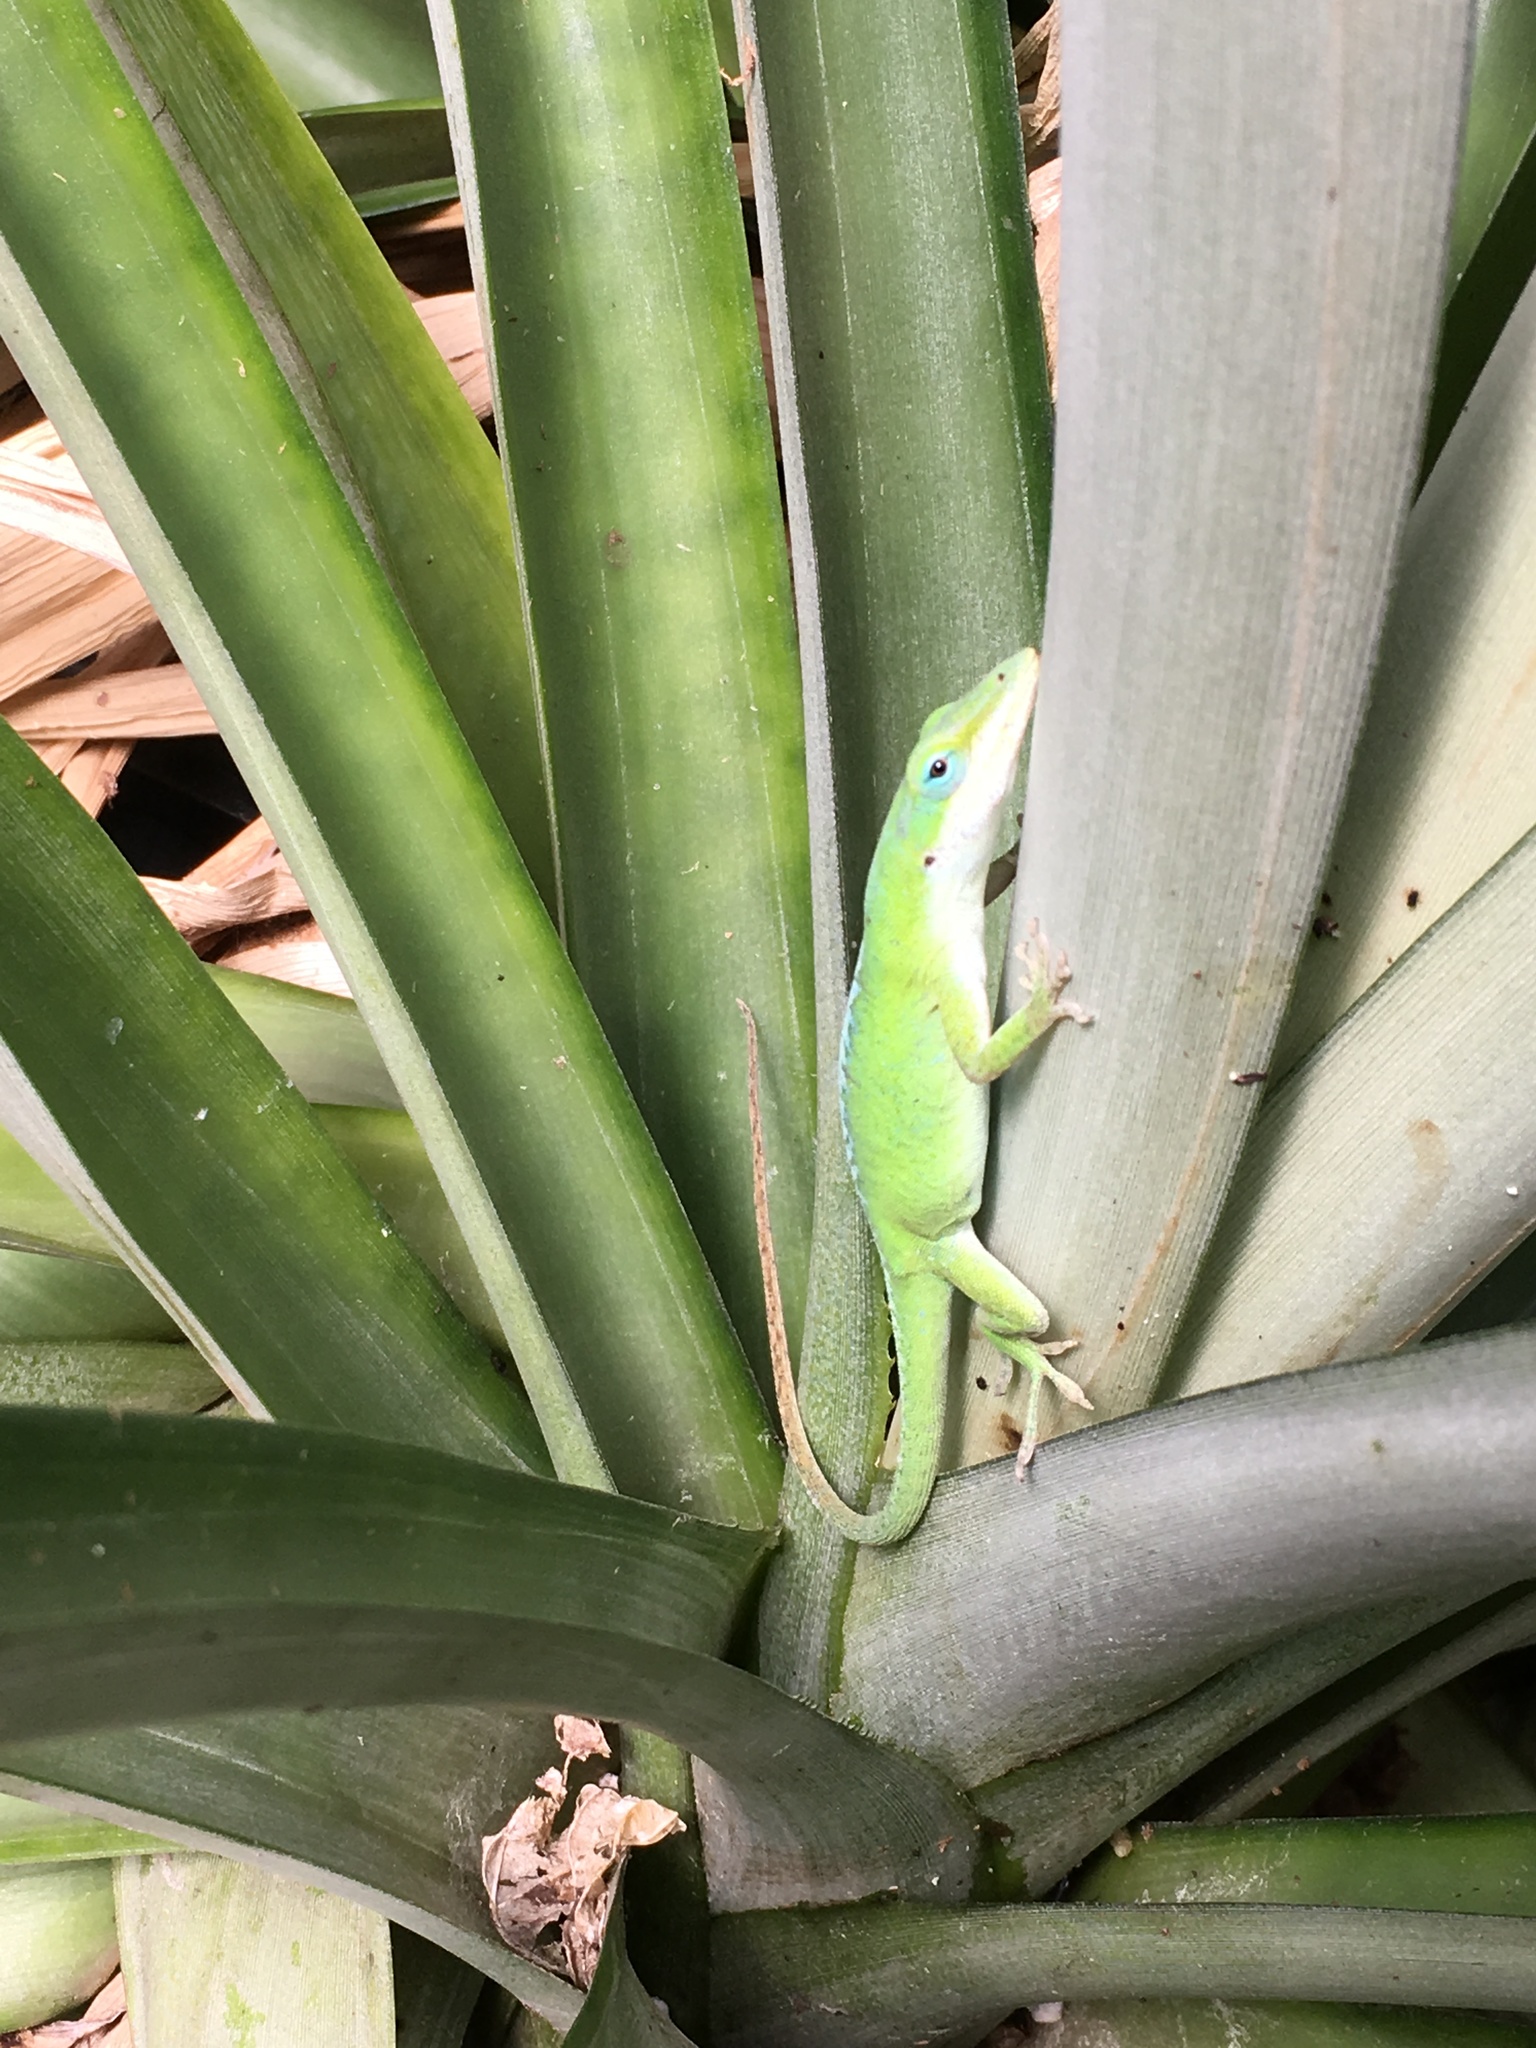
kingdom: Animalia
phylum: Chordata
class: Squamata
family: Dactyloidae
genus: Anolis
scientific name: Anolis carolinensis
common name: Green anole
